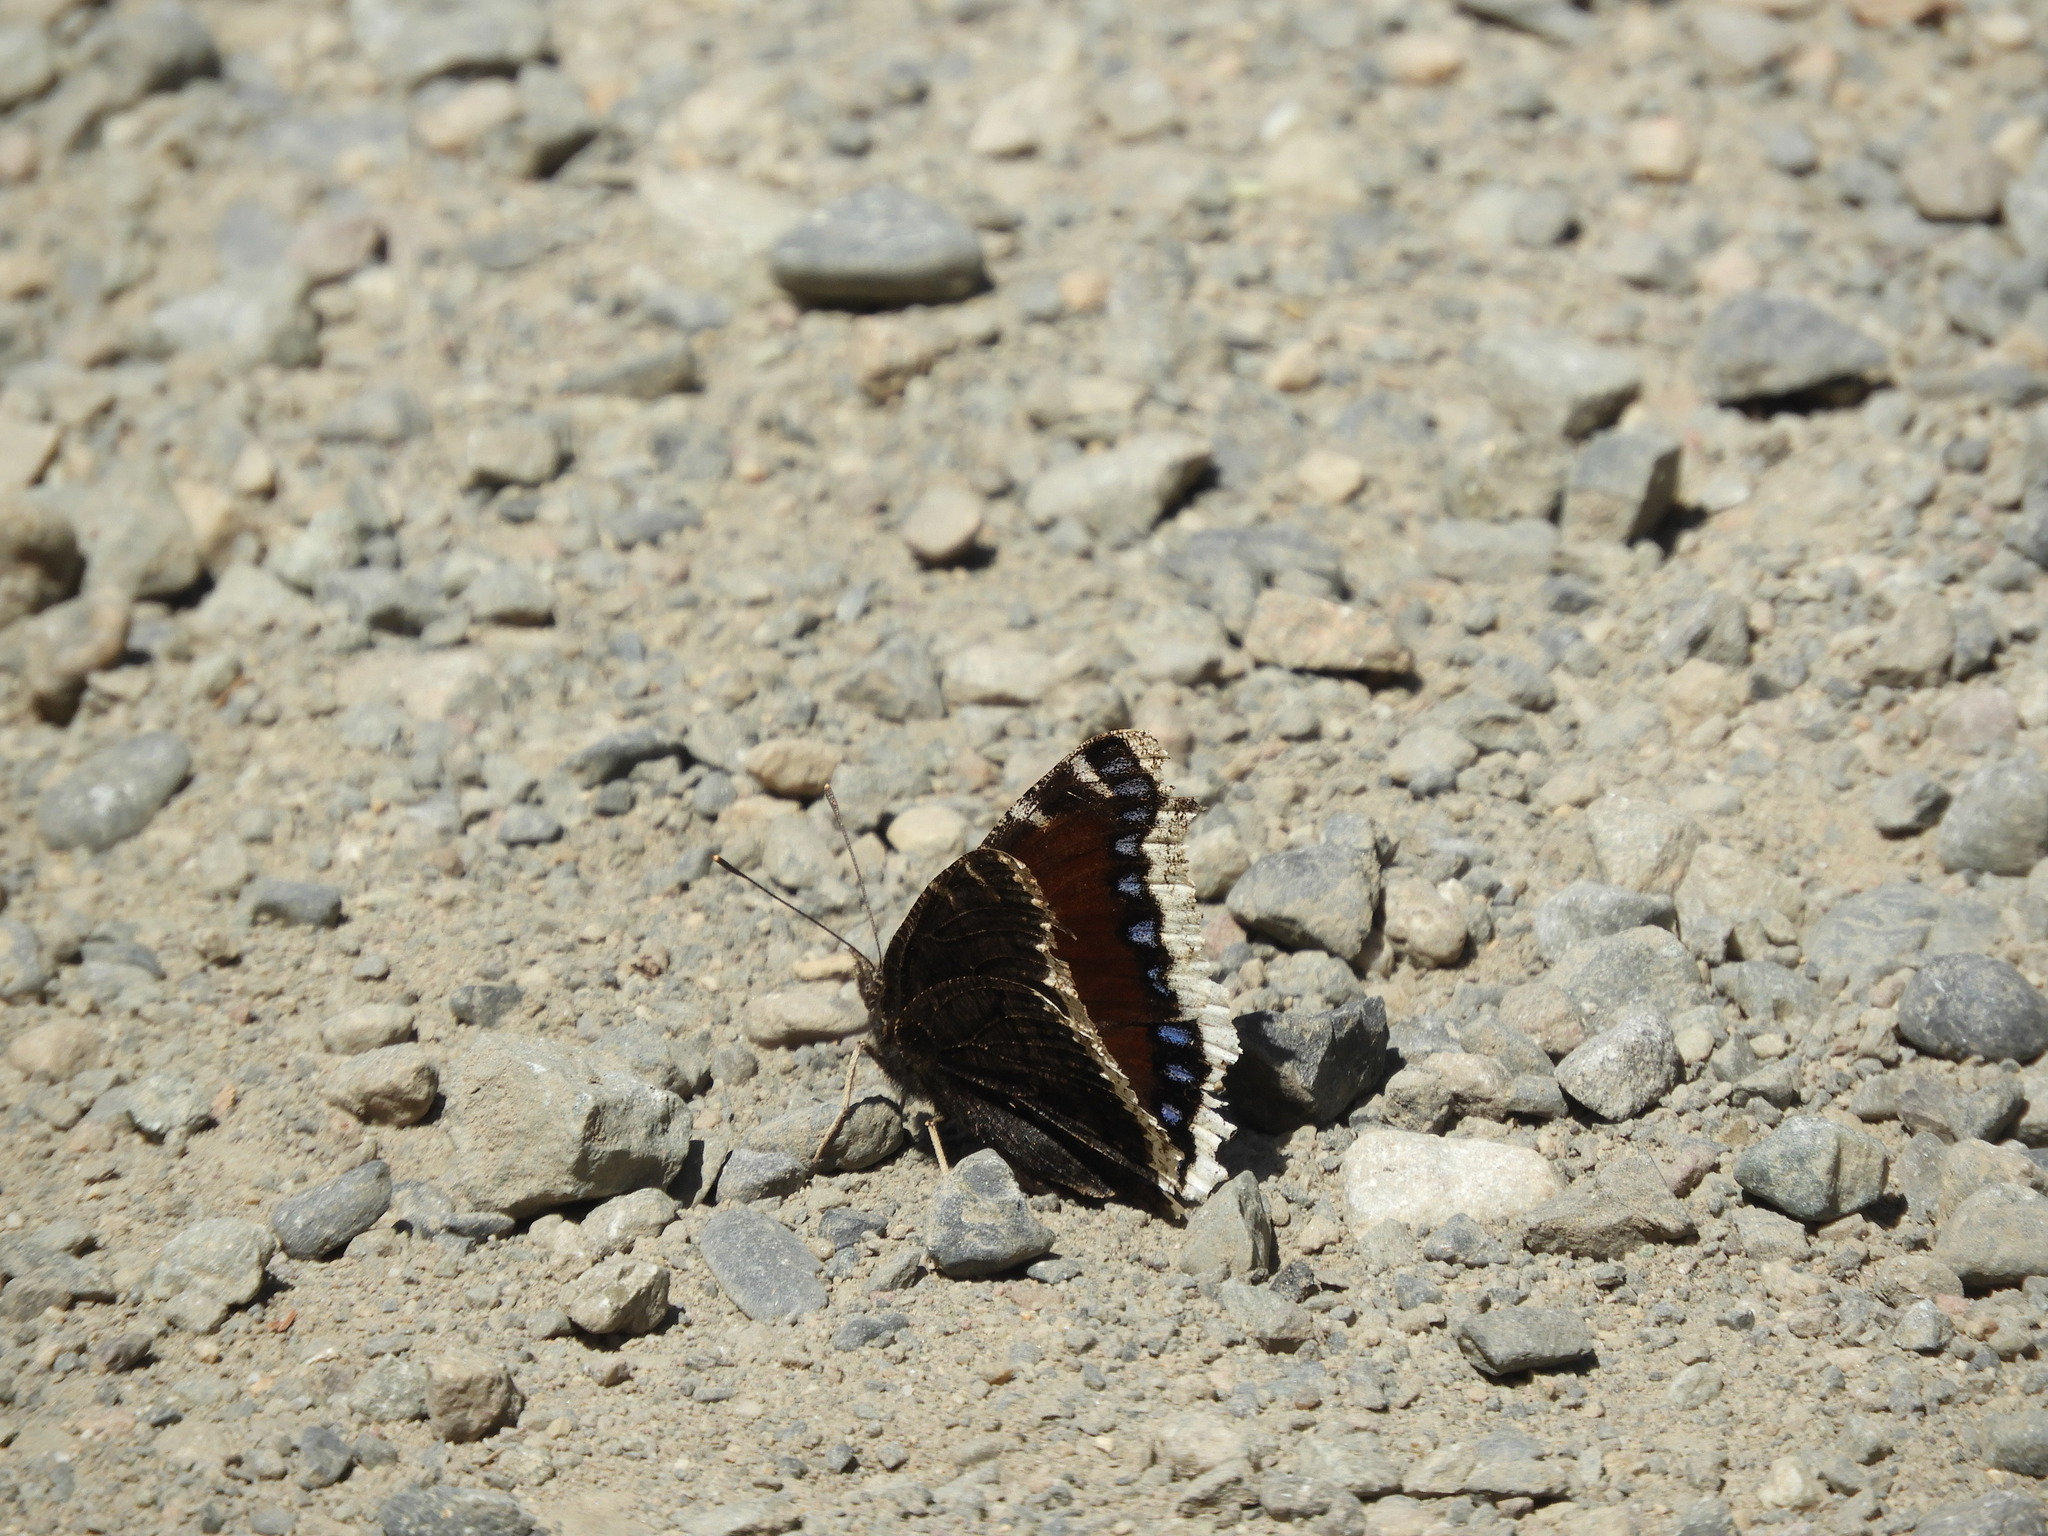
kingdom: Animalia
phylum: Arthropoda
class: Insecta
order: Lepidoptera
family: Nymphalidae
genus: Nymphalis
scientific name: Nymphalis antiopa
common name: Camberwell beauty
